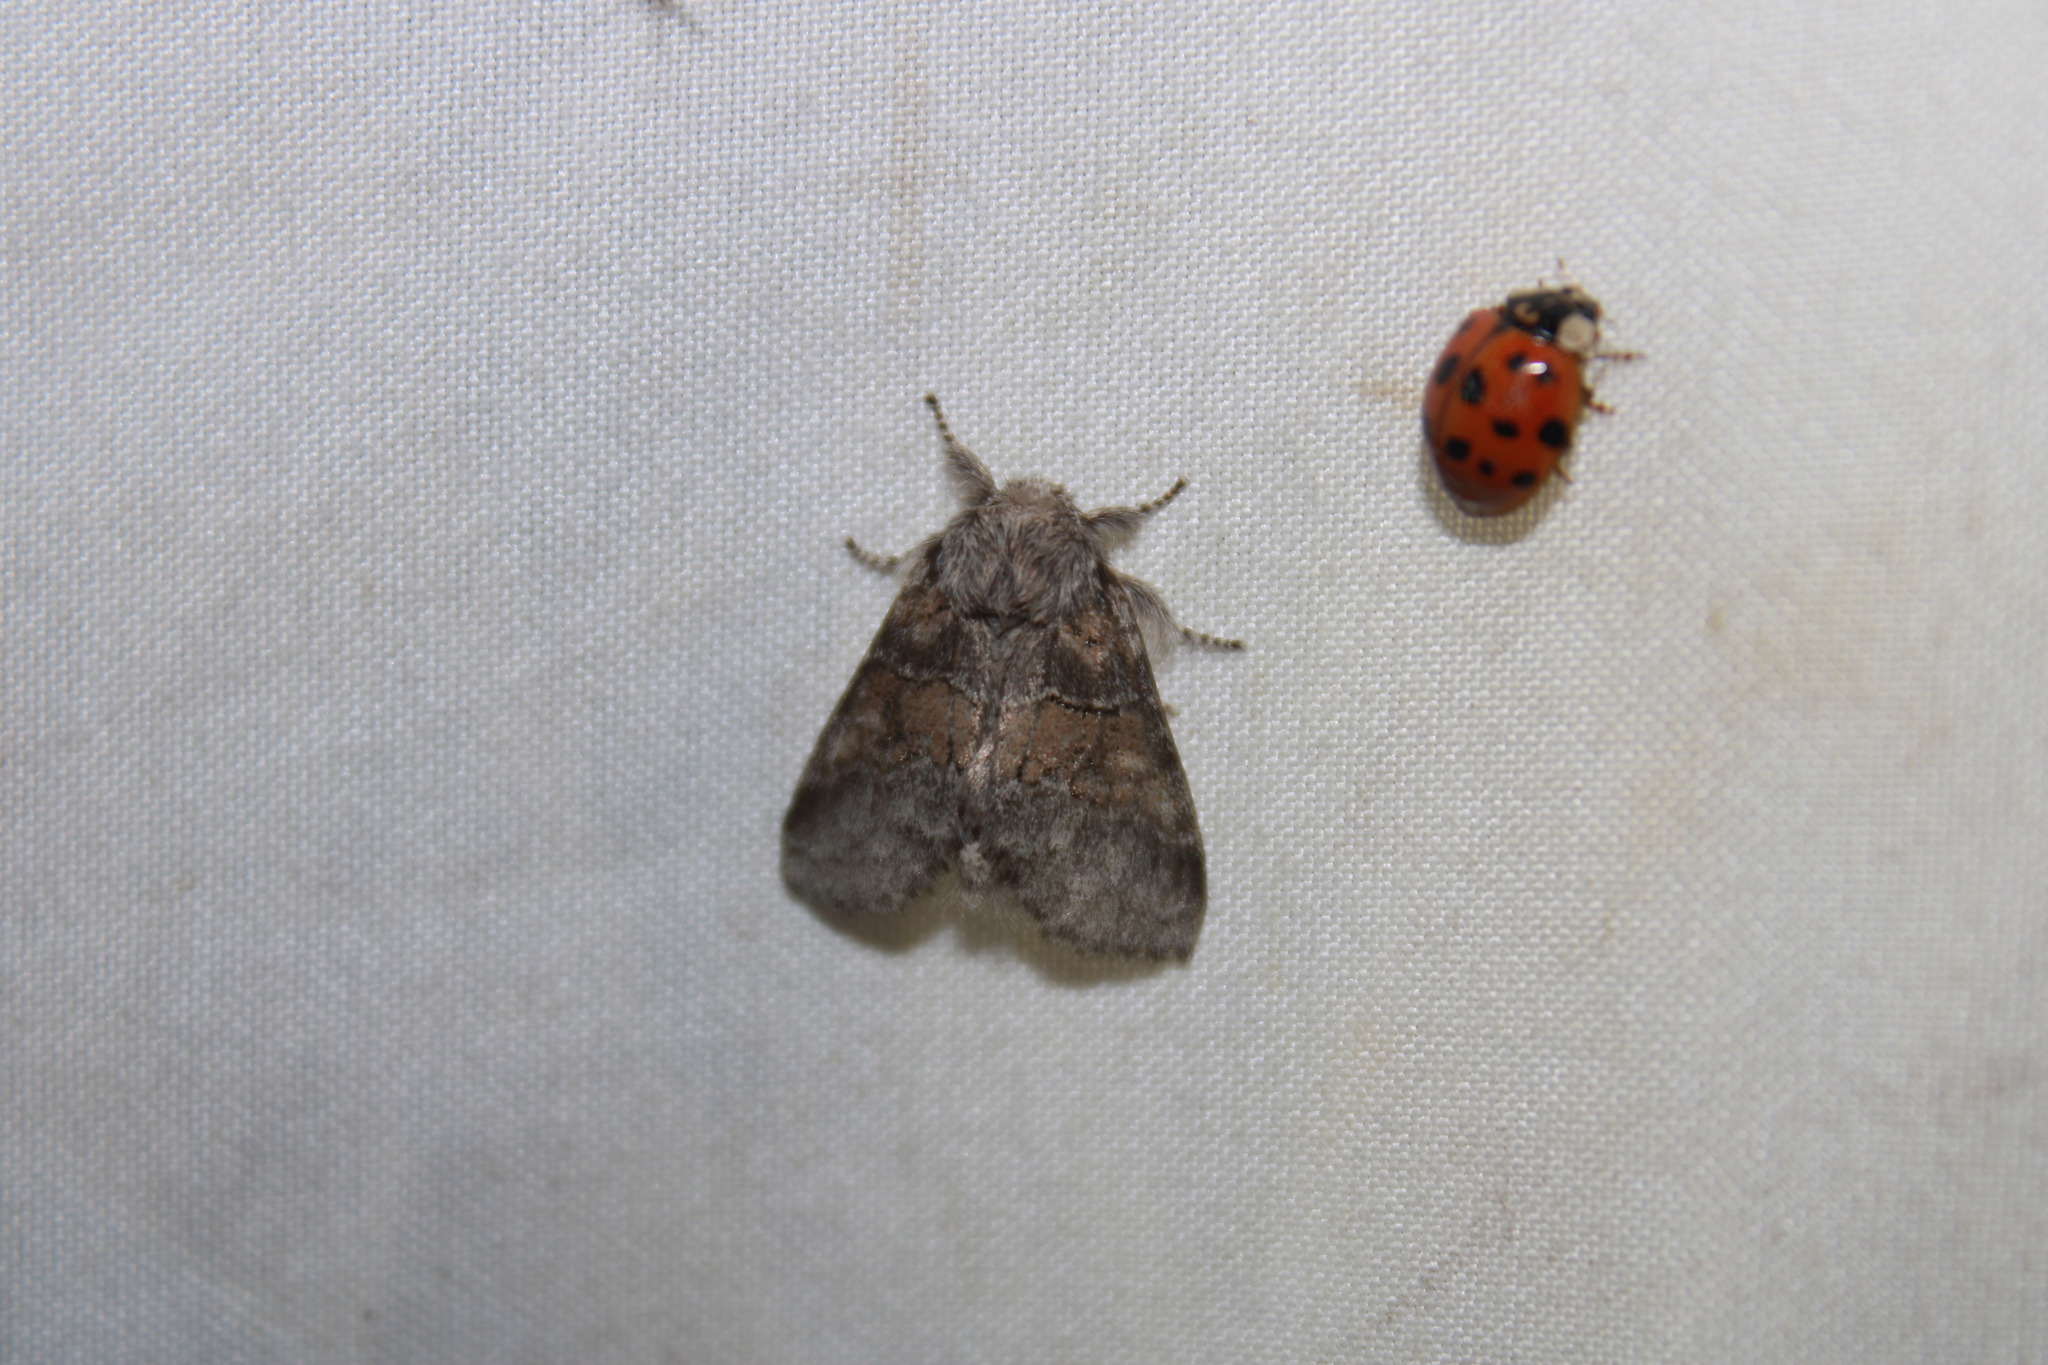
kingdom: Animalia
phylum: Arthropoda
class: Insecta
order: Lepidoptera
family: Notodontidae
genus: Gluphisia
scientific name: Gluphisia septentrionis
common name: Common gluphisia
